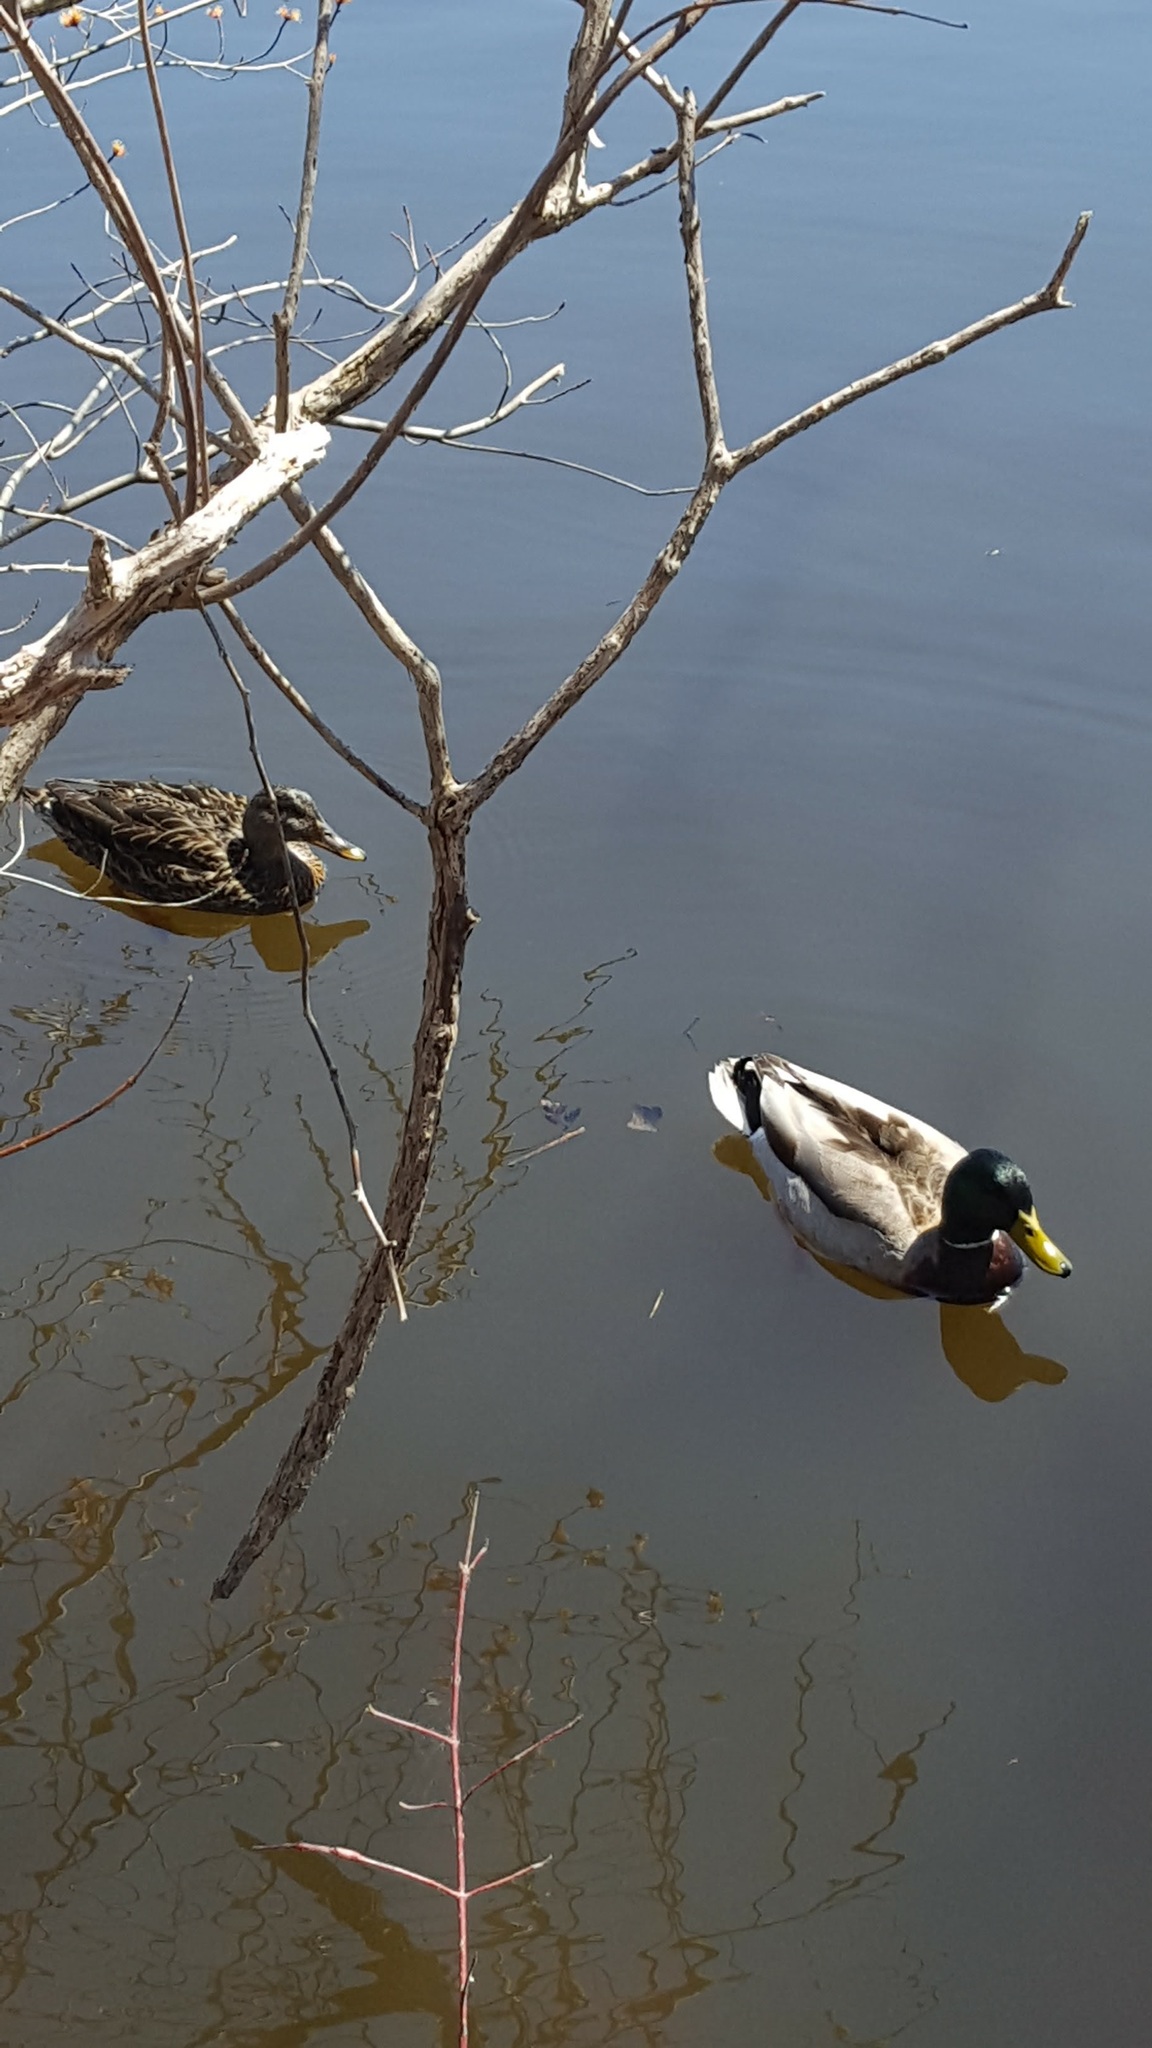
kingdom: Animalia
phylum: Chordata
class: Aves
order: Anseriformes
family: Anatidae
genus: Anas
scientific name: Anas platyrhynchos
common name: Mallard
